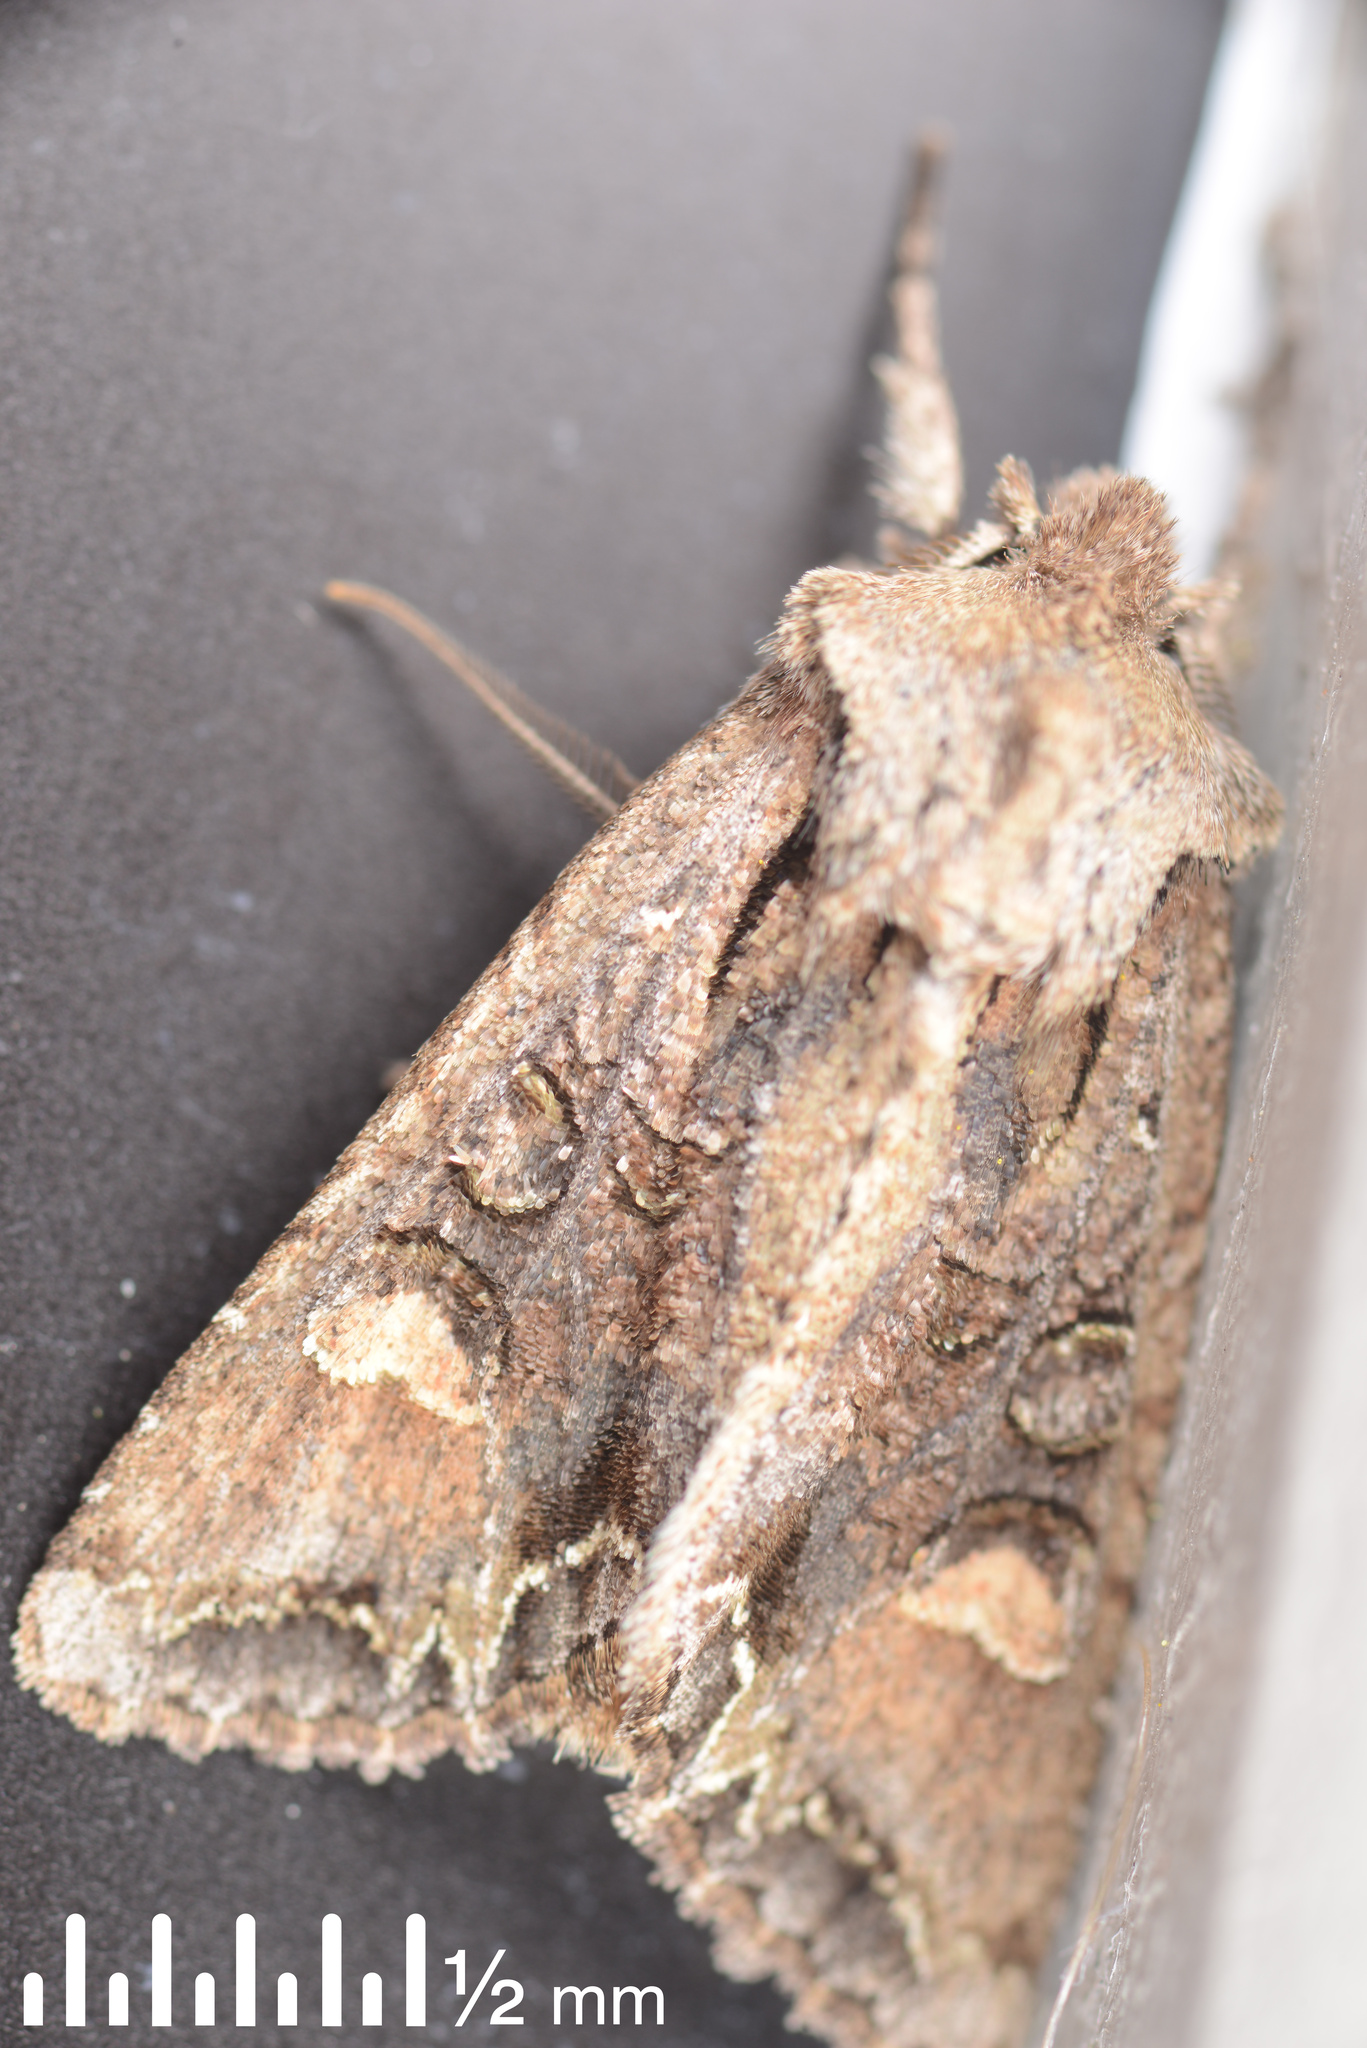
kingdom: Animalia
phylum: Arthropoda
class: Insecta
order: Lepidoptera
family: Noctuidae
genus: Ichneutica
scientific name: Ichneutica insignis
